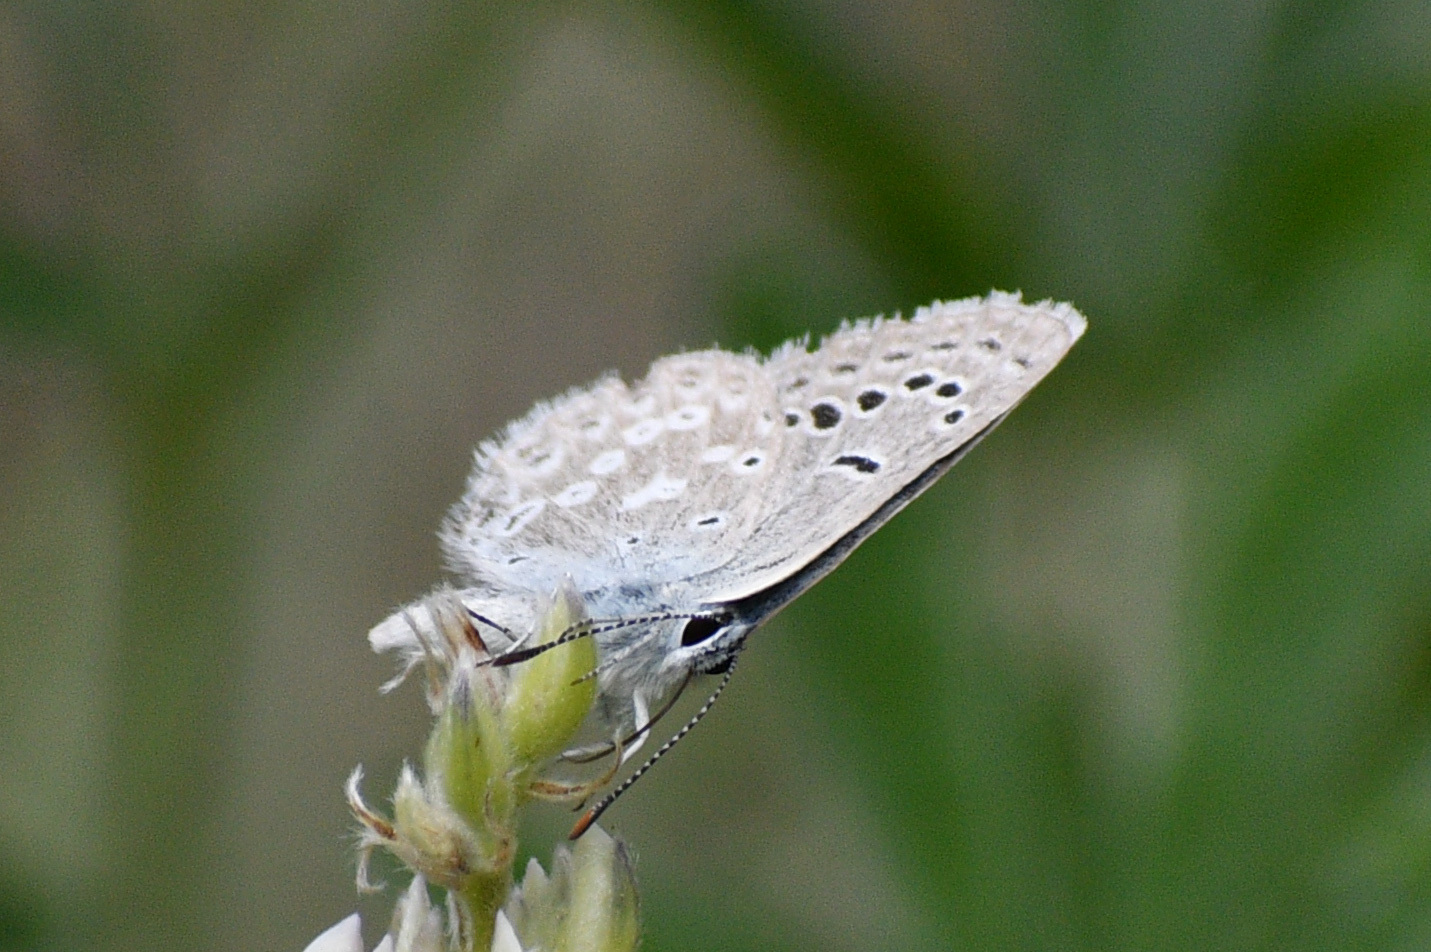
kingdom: Animalia
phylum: Arthropoda
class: Insecta
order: Lepidoptera
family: Lycaenidae
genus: Icaricia
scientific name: Icaricia icarioides
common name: Boisduval's blue
